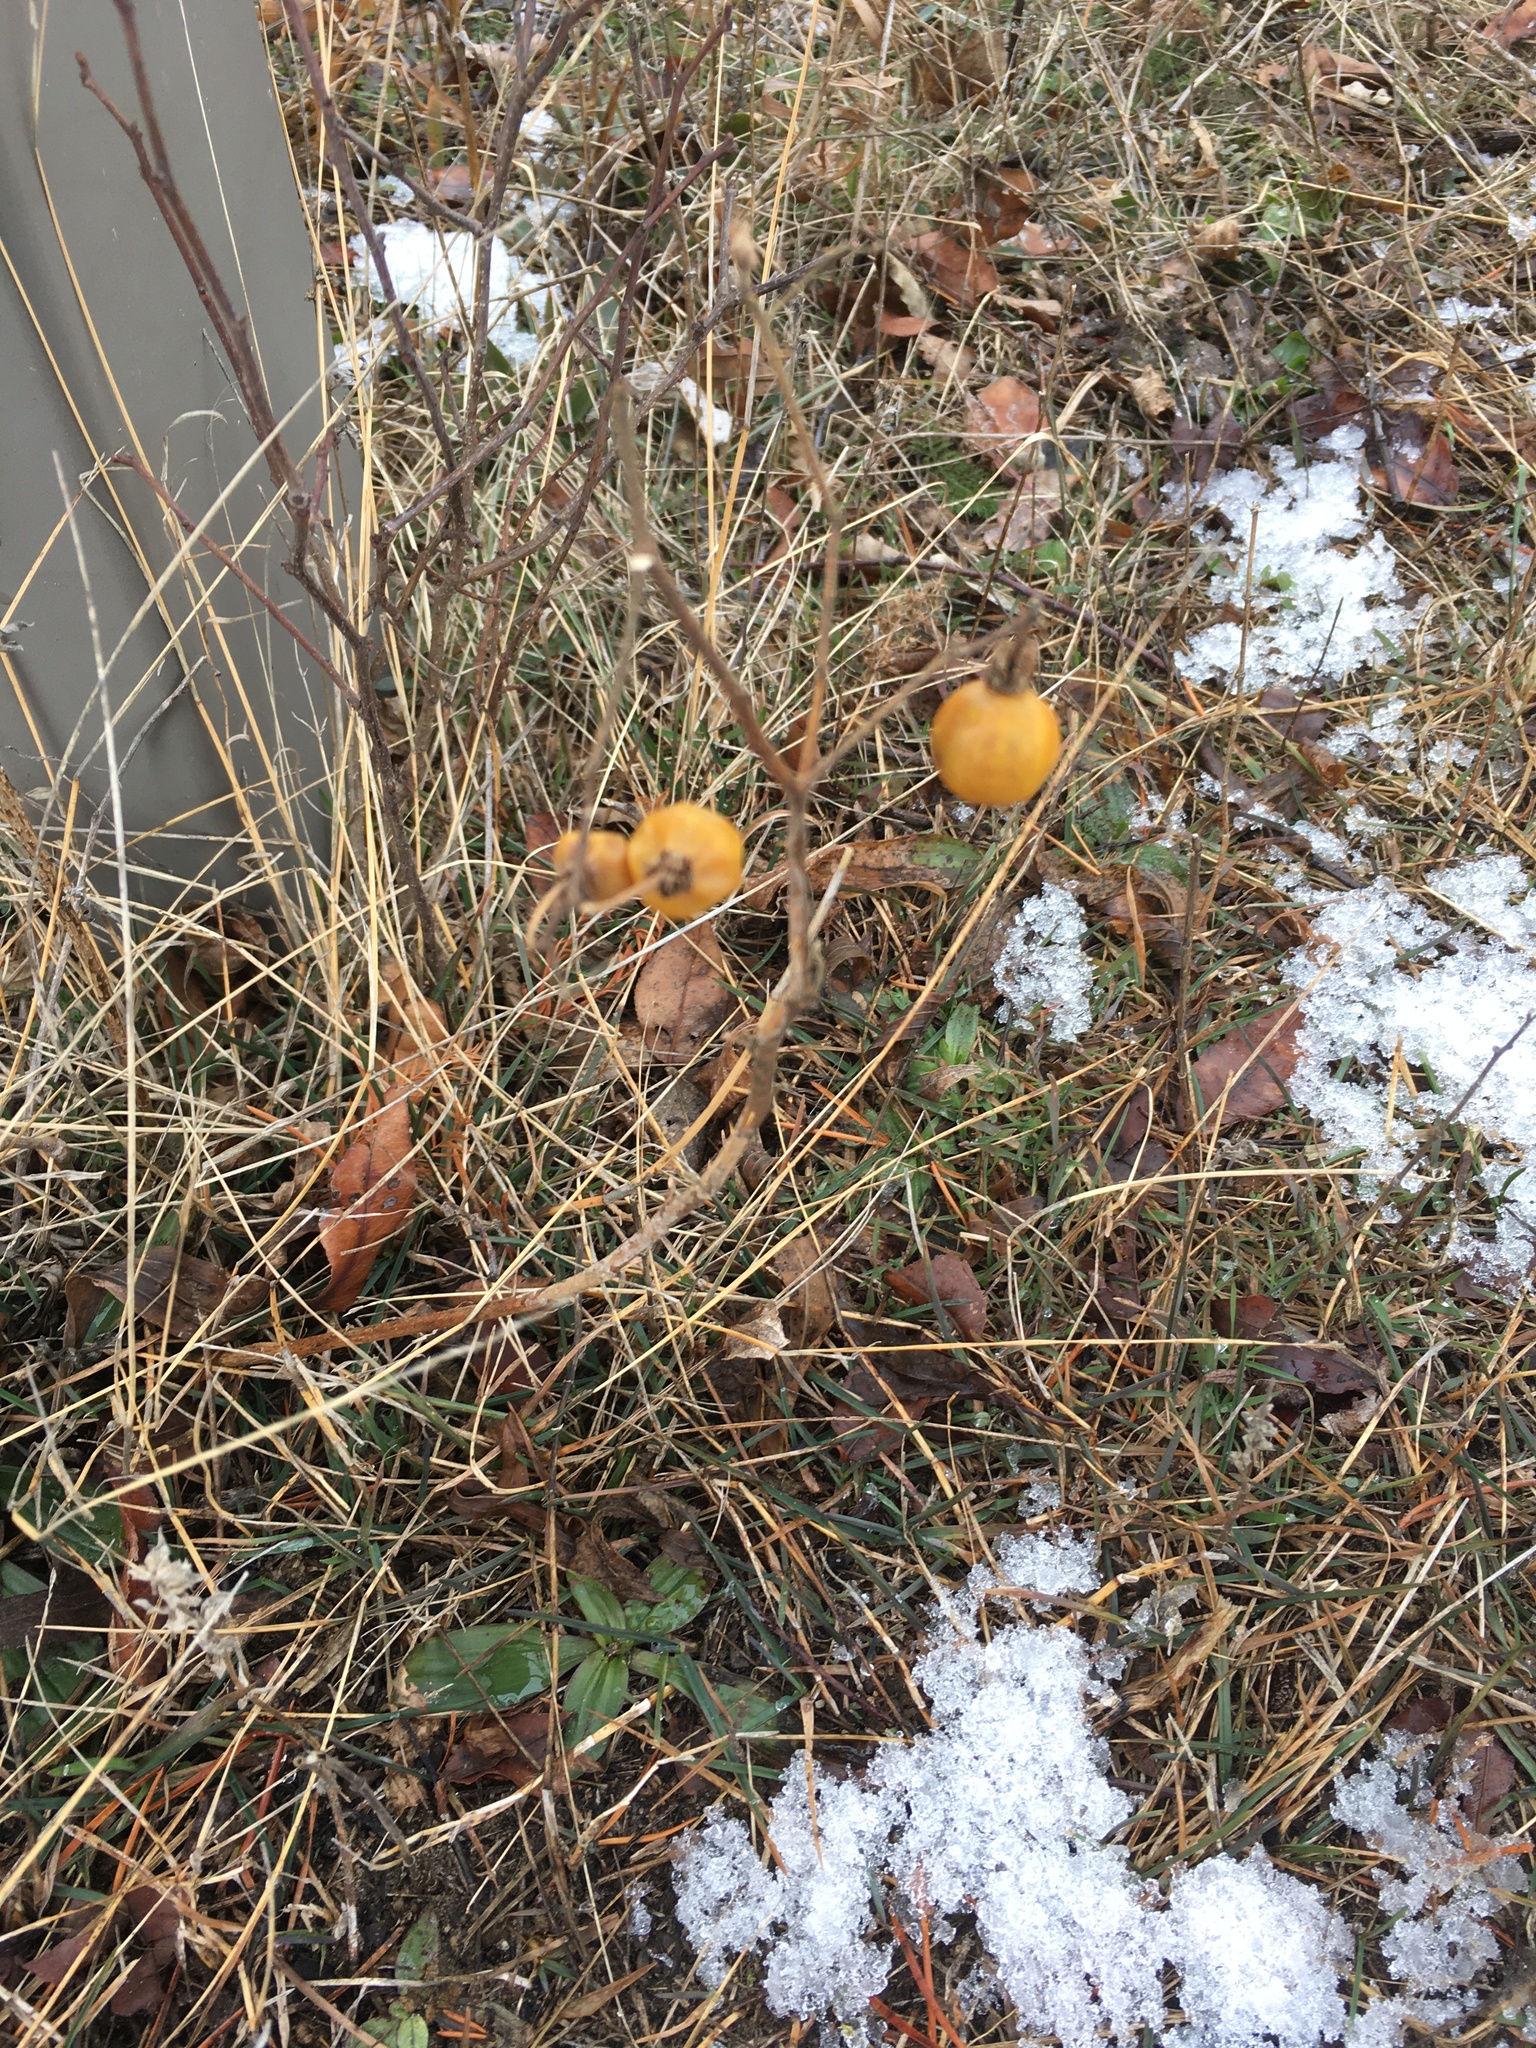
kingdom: Plantae
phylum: Tracheophyta
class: Magnoliopsida
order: Solanales
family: Solanaceae
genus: Solanum
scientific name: Solanum carolinense
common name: Horse-nettle
